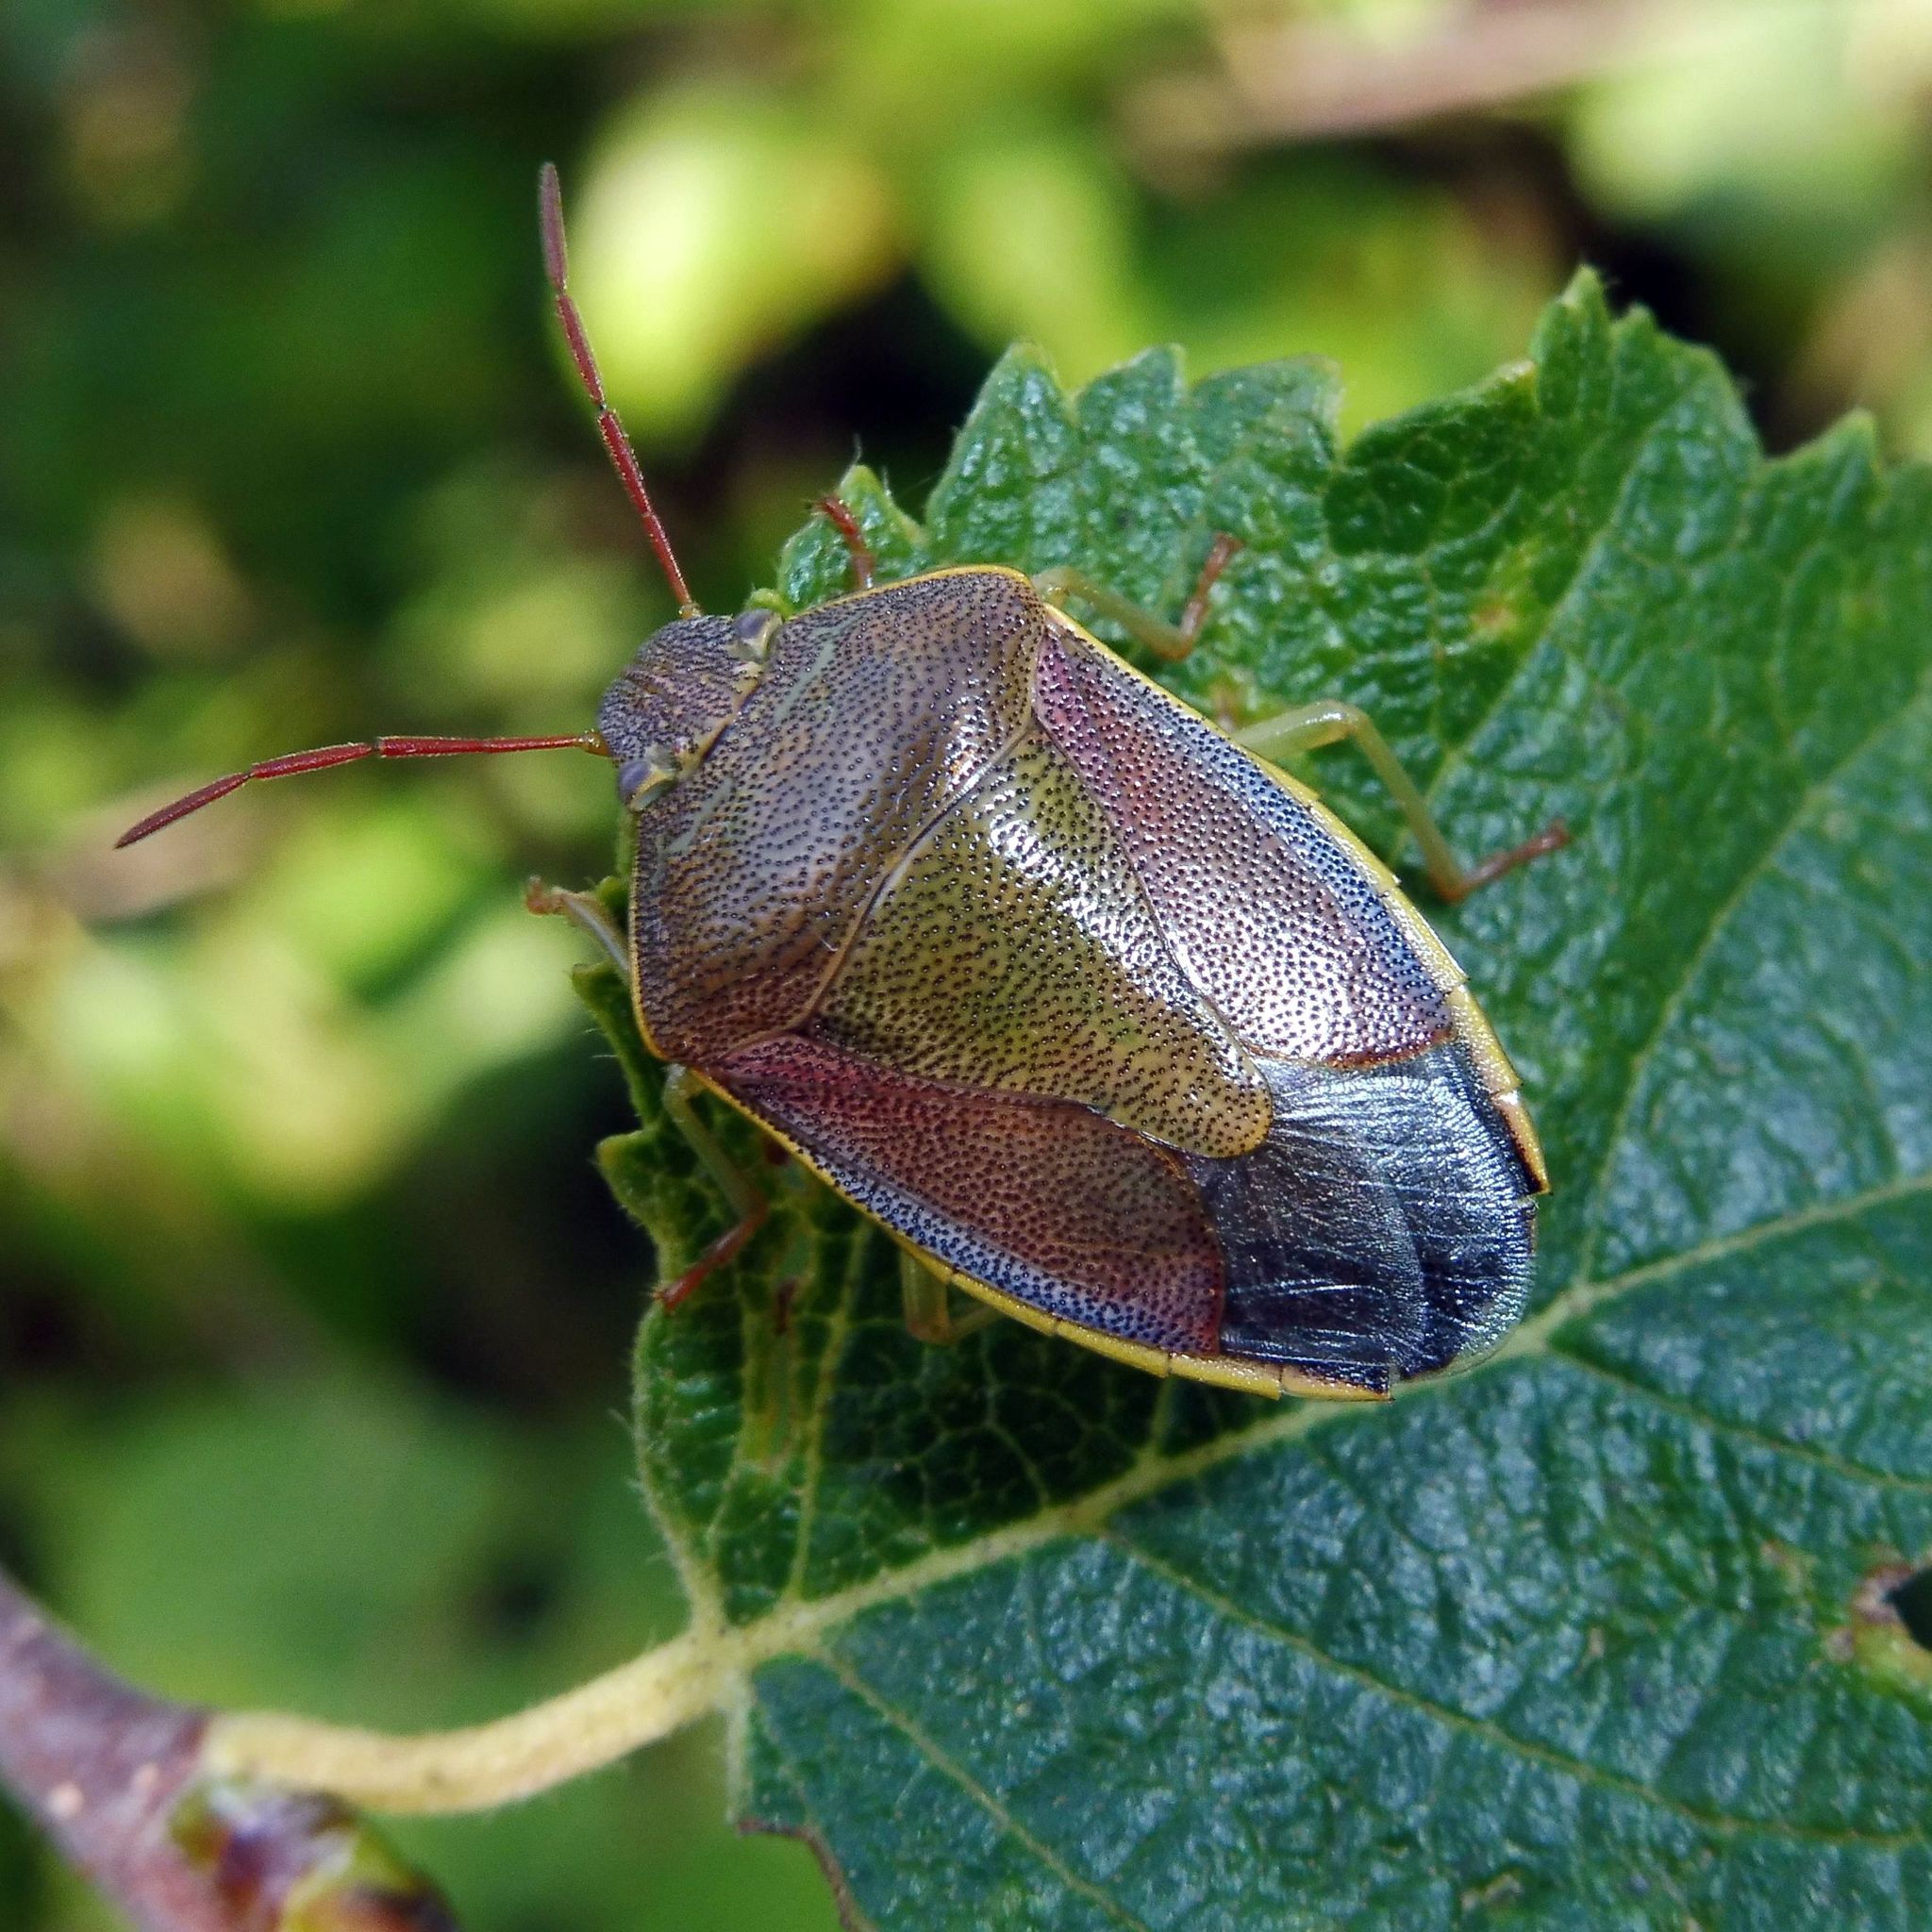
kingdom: Animalia
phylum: Arthropoda
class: Insecta
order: Hemiptera
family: Pentatomidae
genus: Piezodorus
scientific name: Piezodorus lituratus
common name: Stink bug
